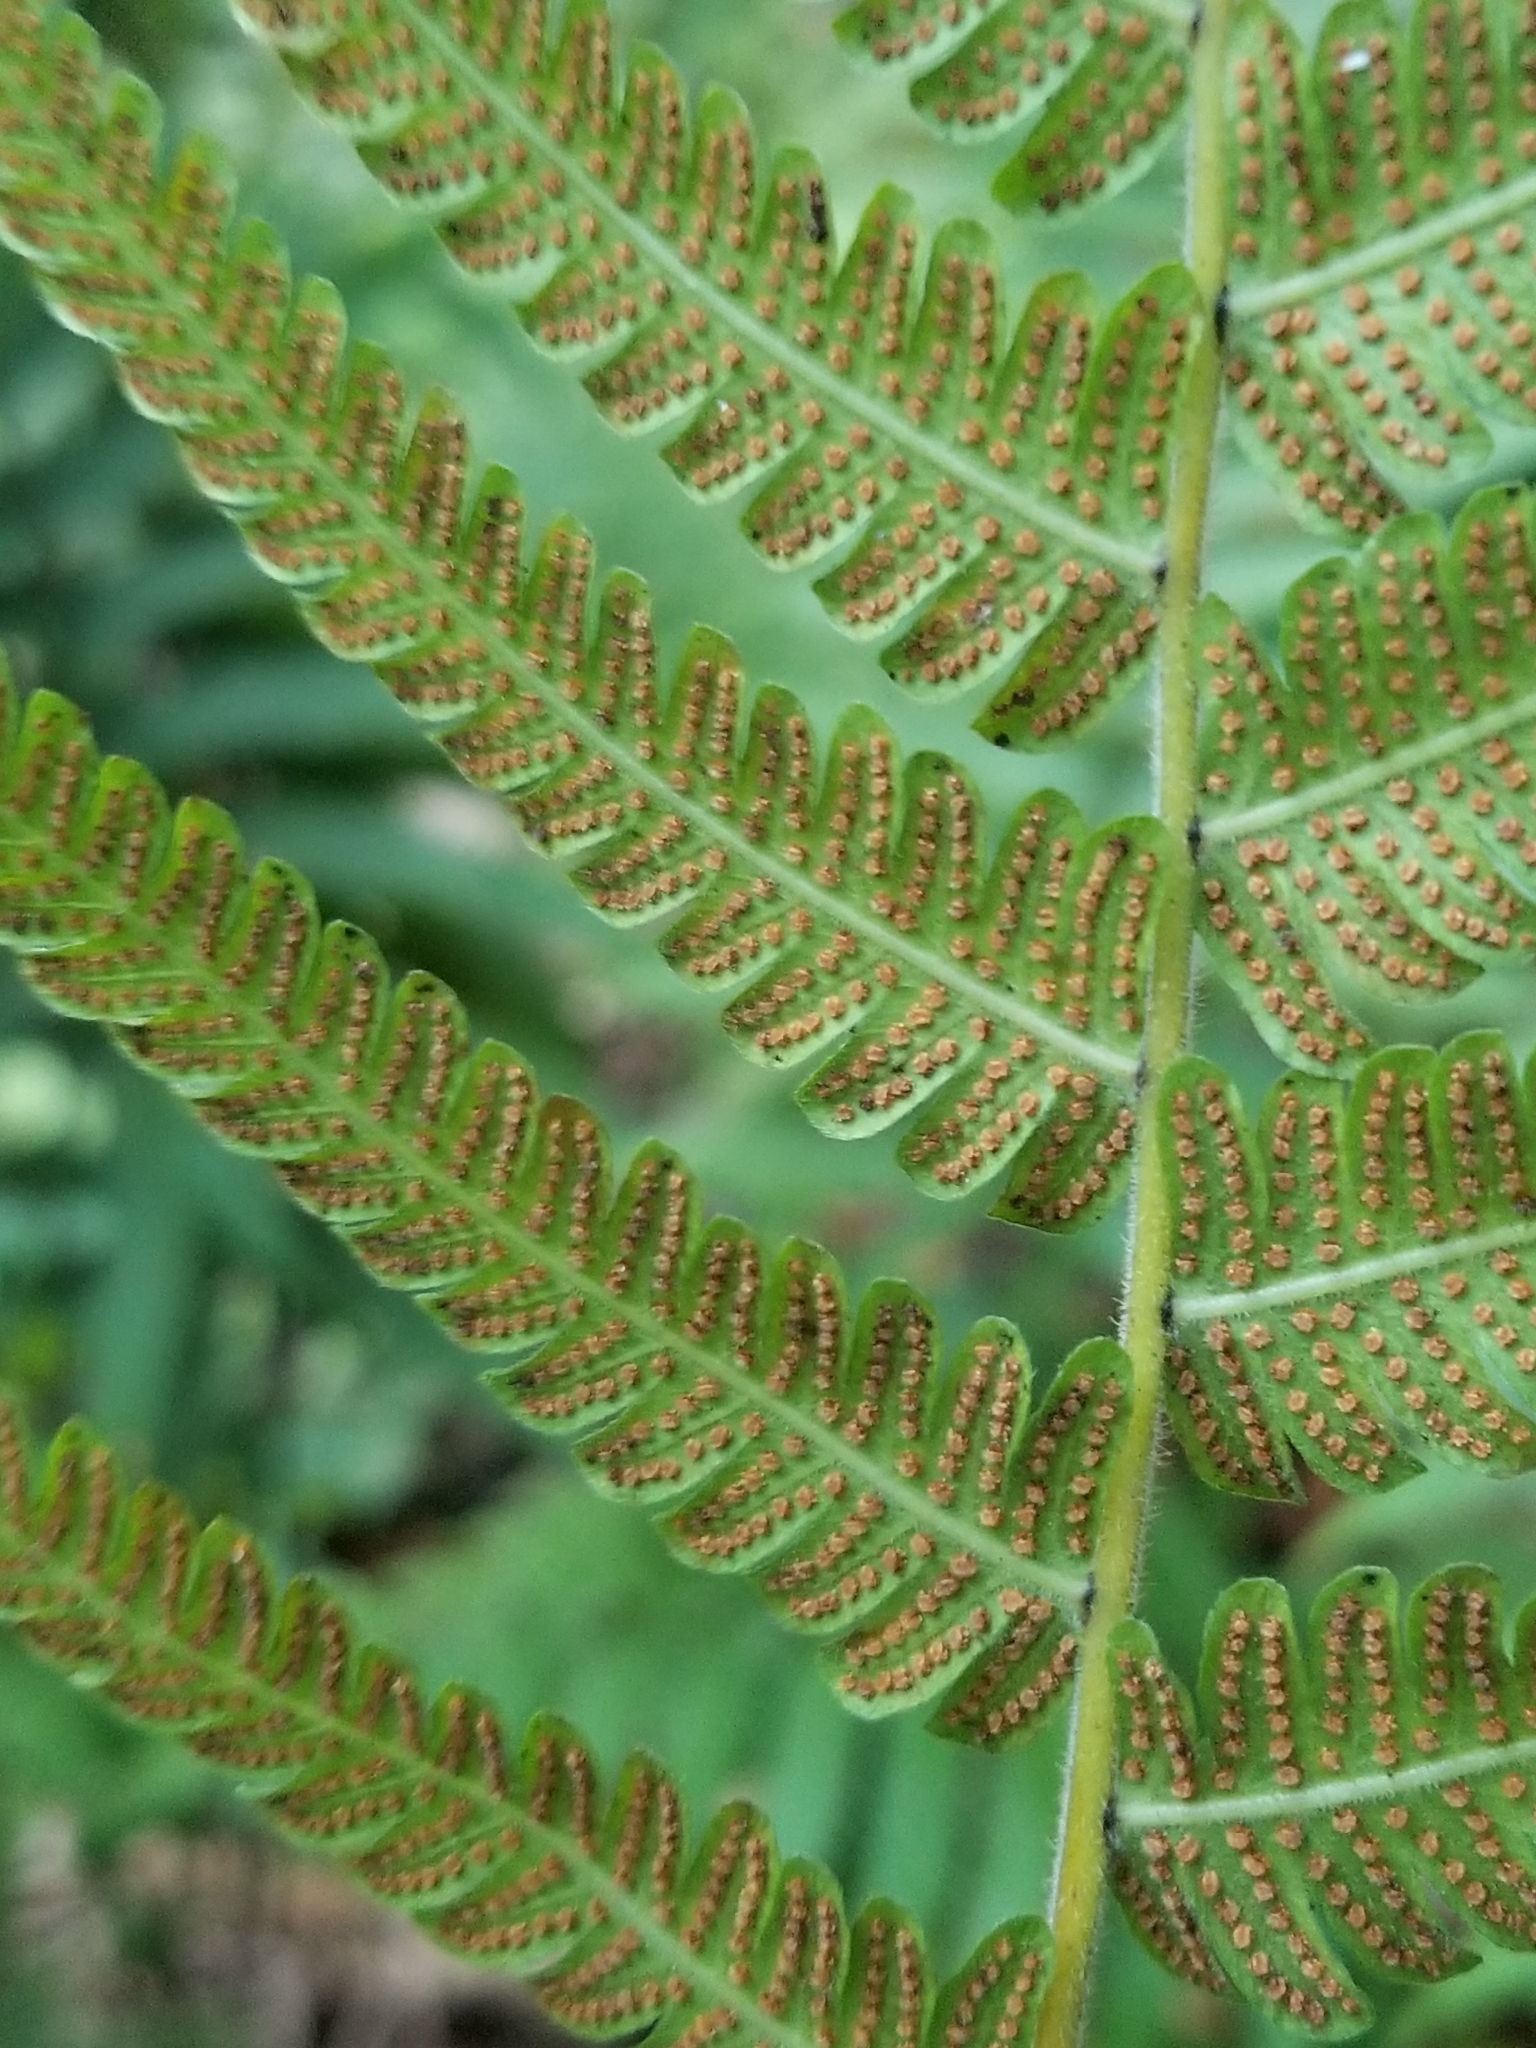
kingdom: Plantae
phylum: Tracheophyta
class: Polypodiopsida
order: Polypodiales
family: Thelypteridaceae
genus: Christella
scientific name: Christella parasitica
